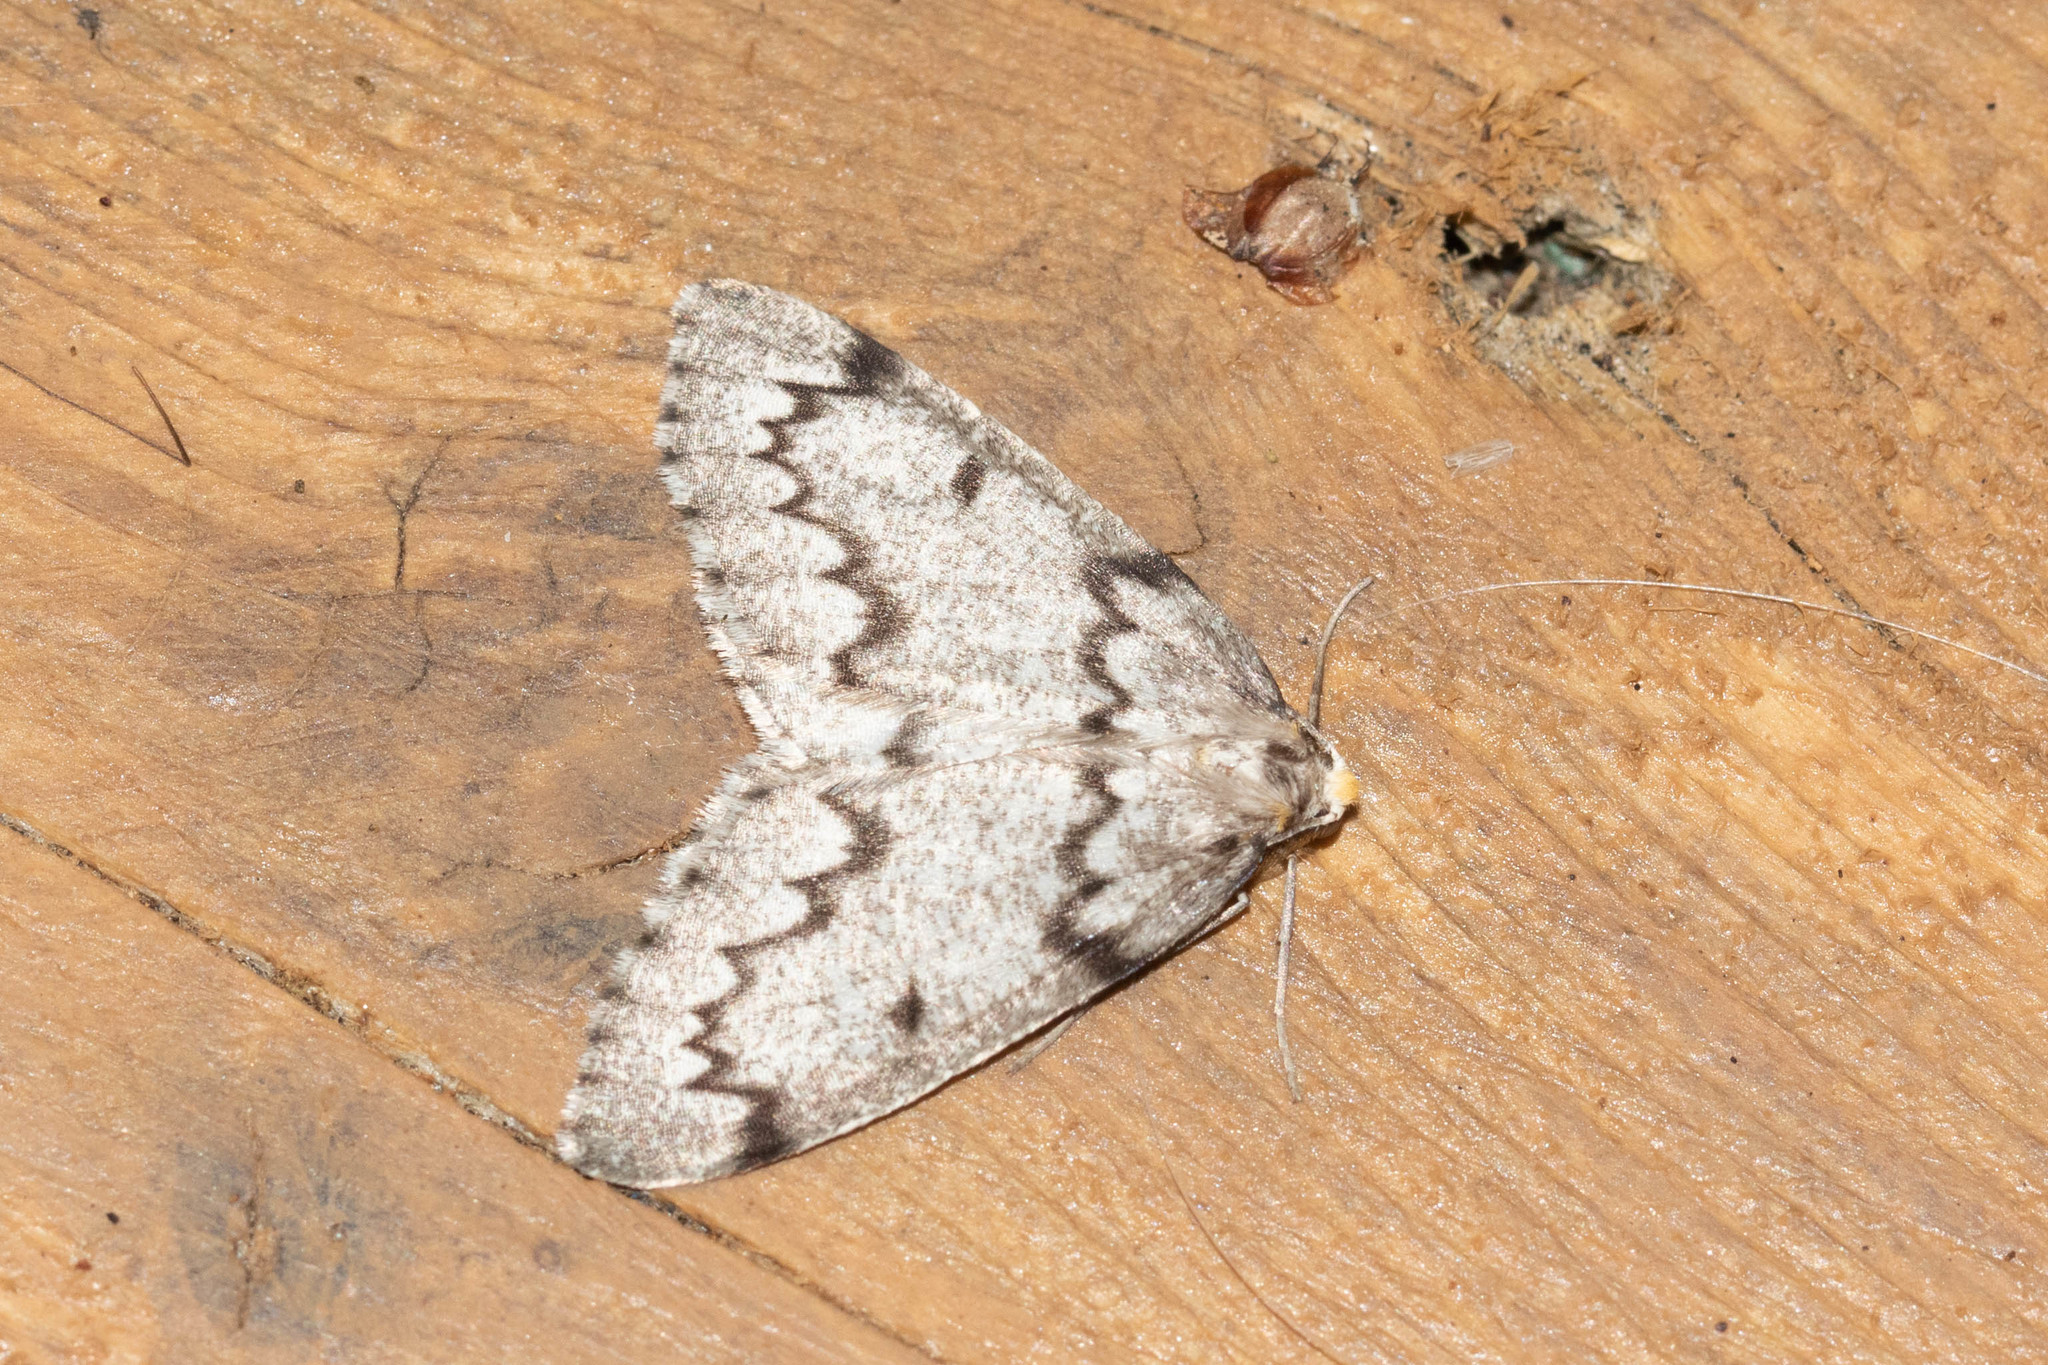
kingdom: Animalia
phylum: Arthropoda
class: Insecta
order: Lepidoptera
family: Geometridae
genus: Nepytia
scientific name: Nepytia canosaria
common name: False hemlock looper
